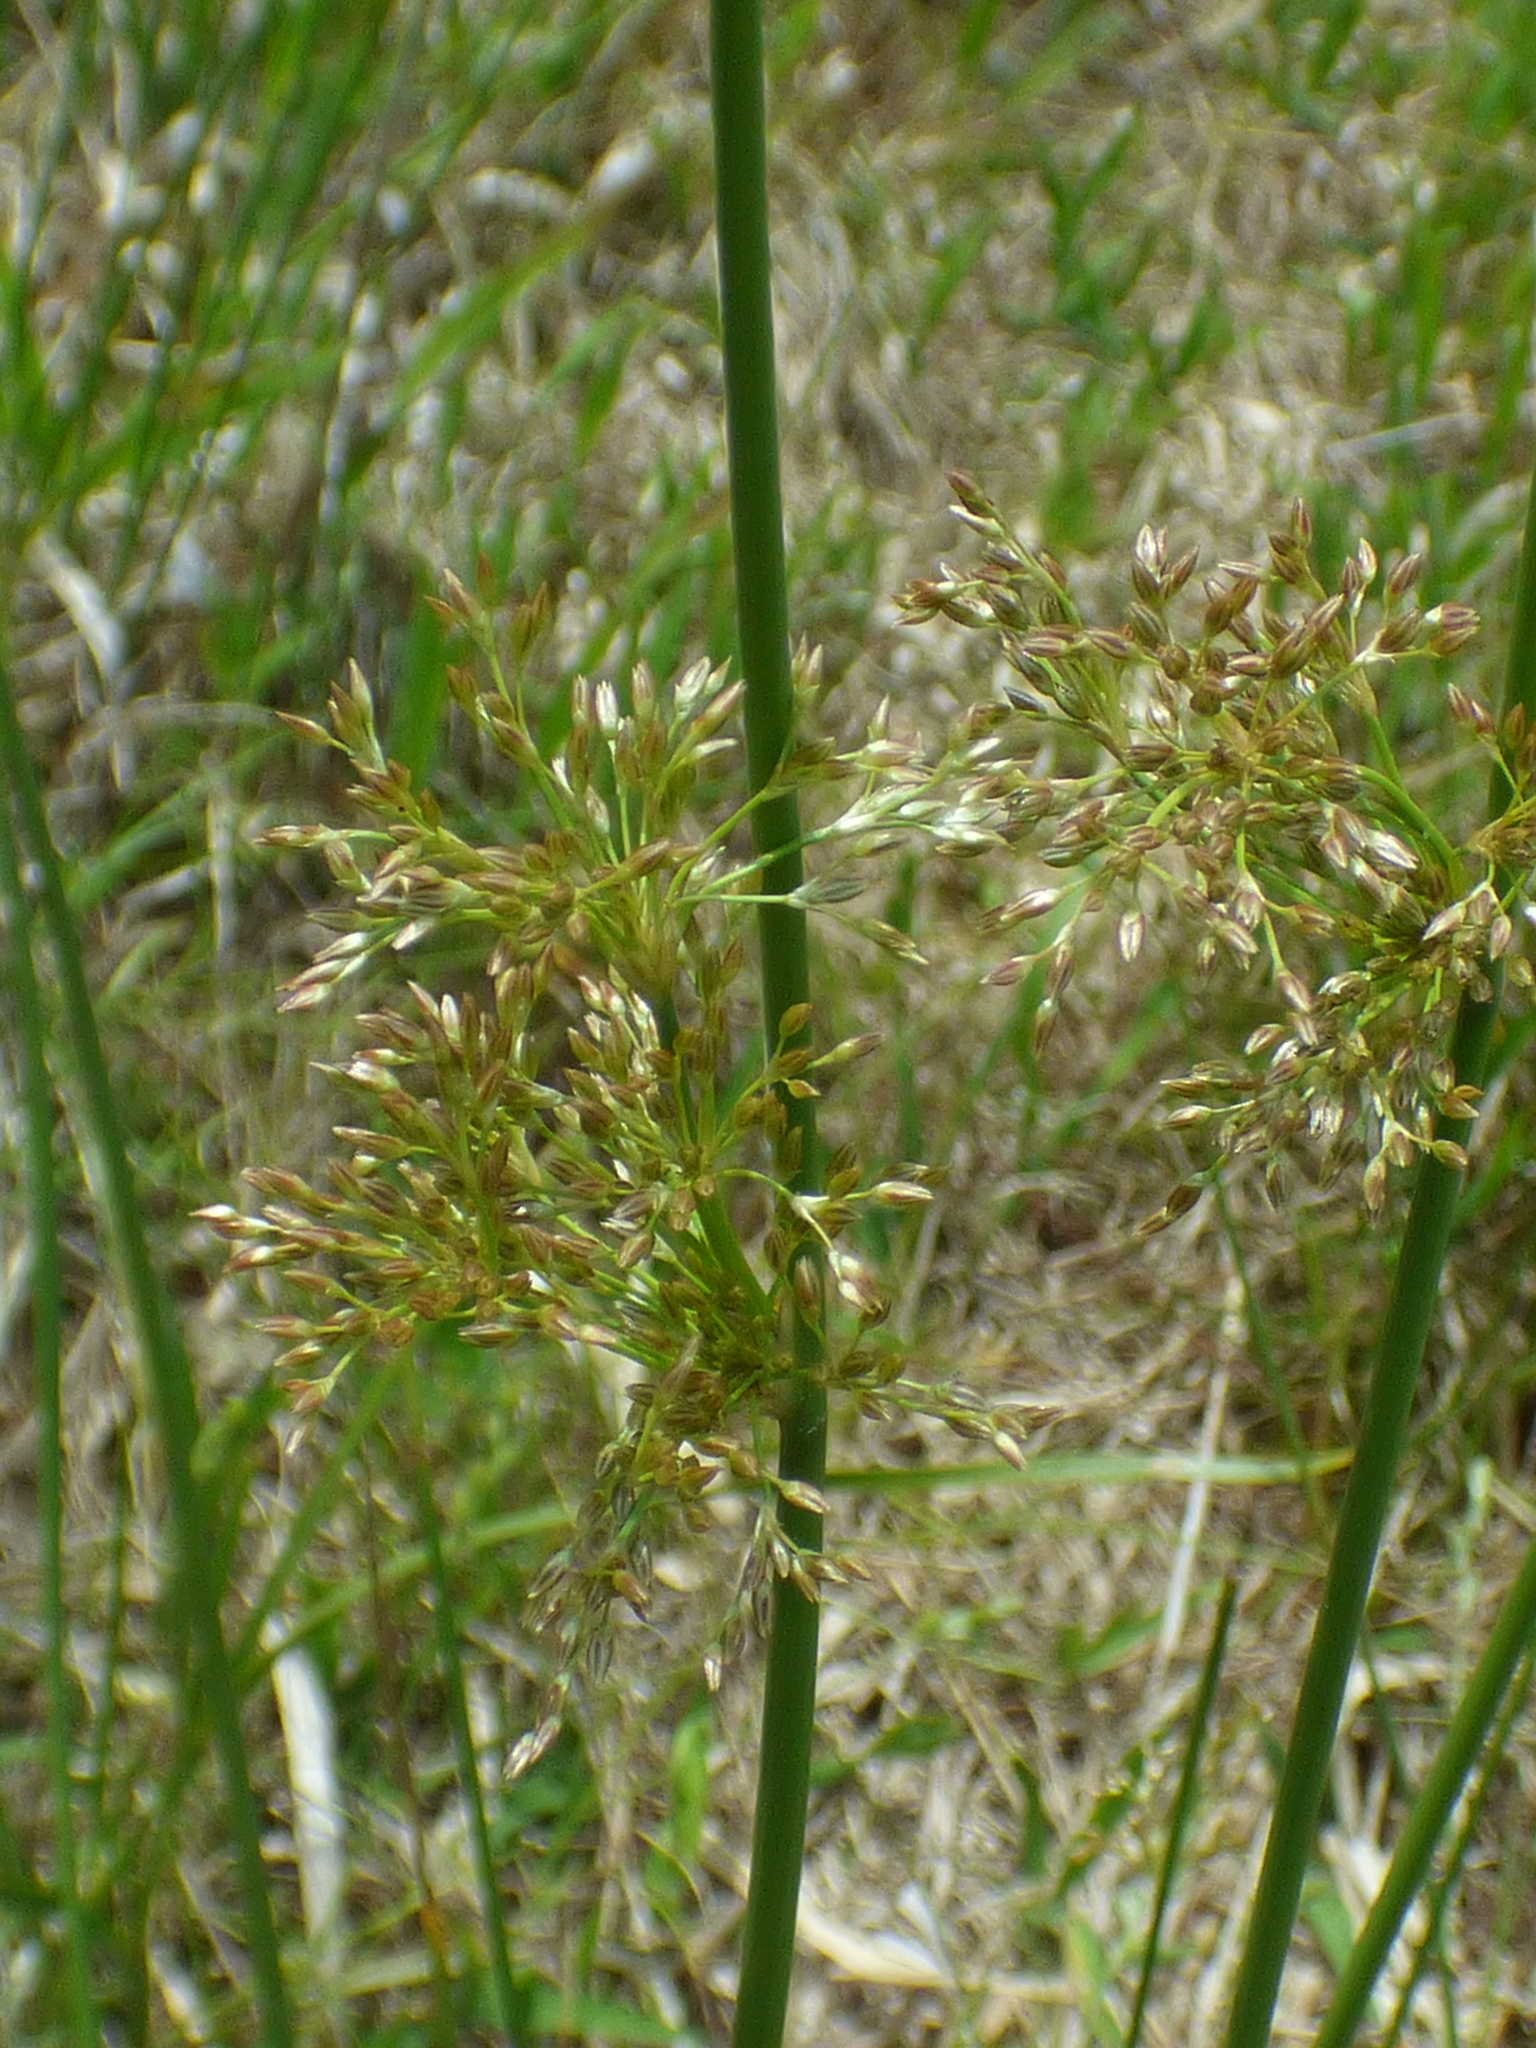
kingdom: Plantae
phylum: Tracheophyta
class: Liliopsida
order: Poales
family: Juncaceae
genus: Juncus
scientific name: Juncus effusus
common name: Soft rush
